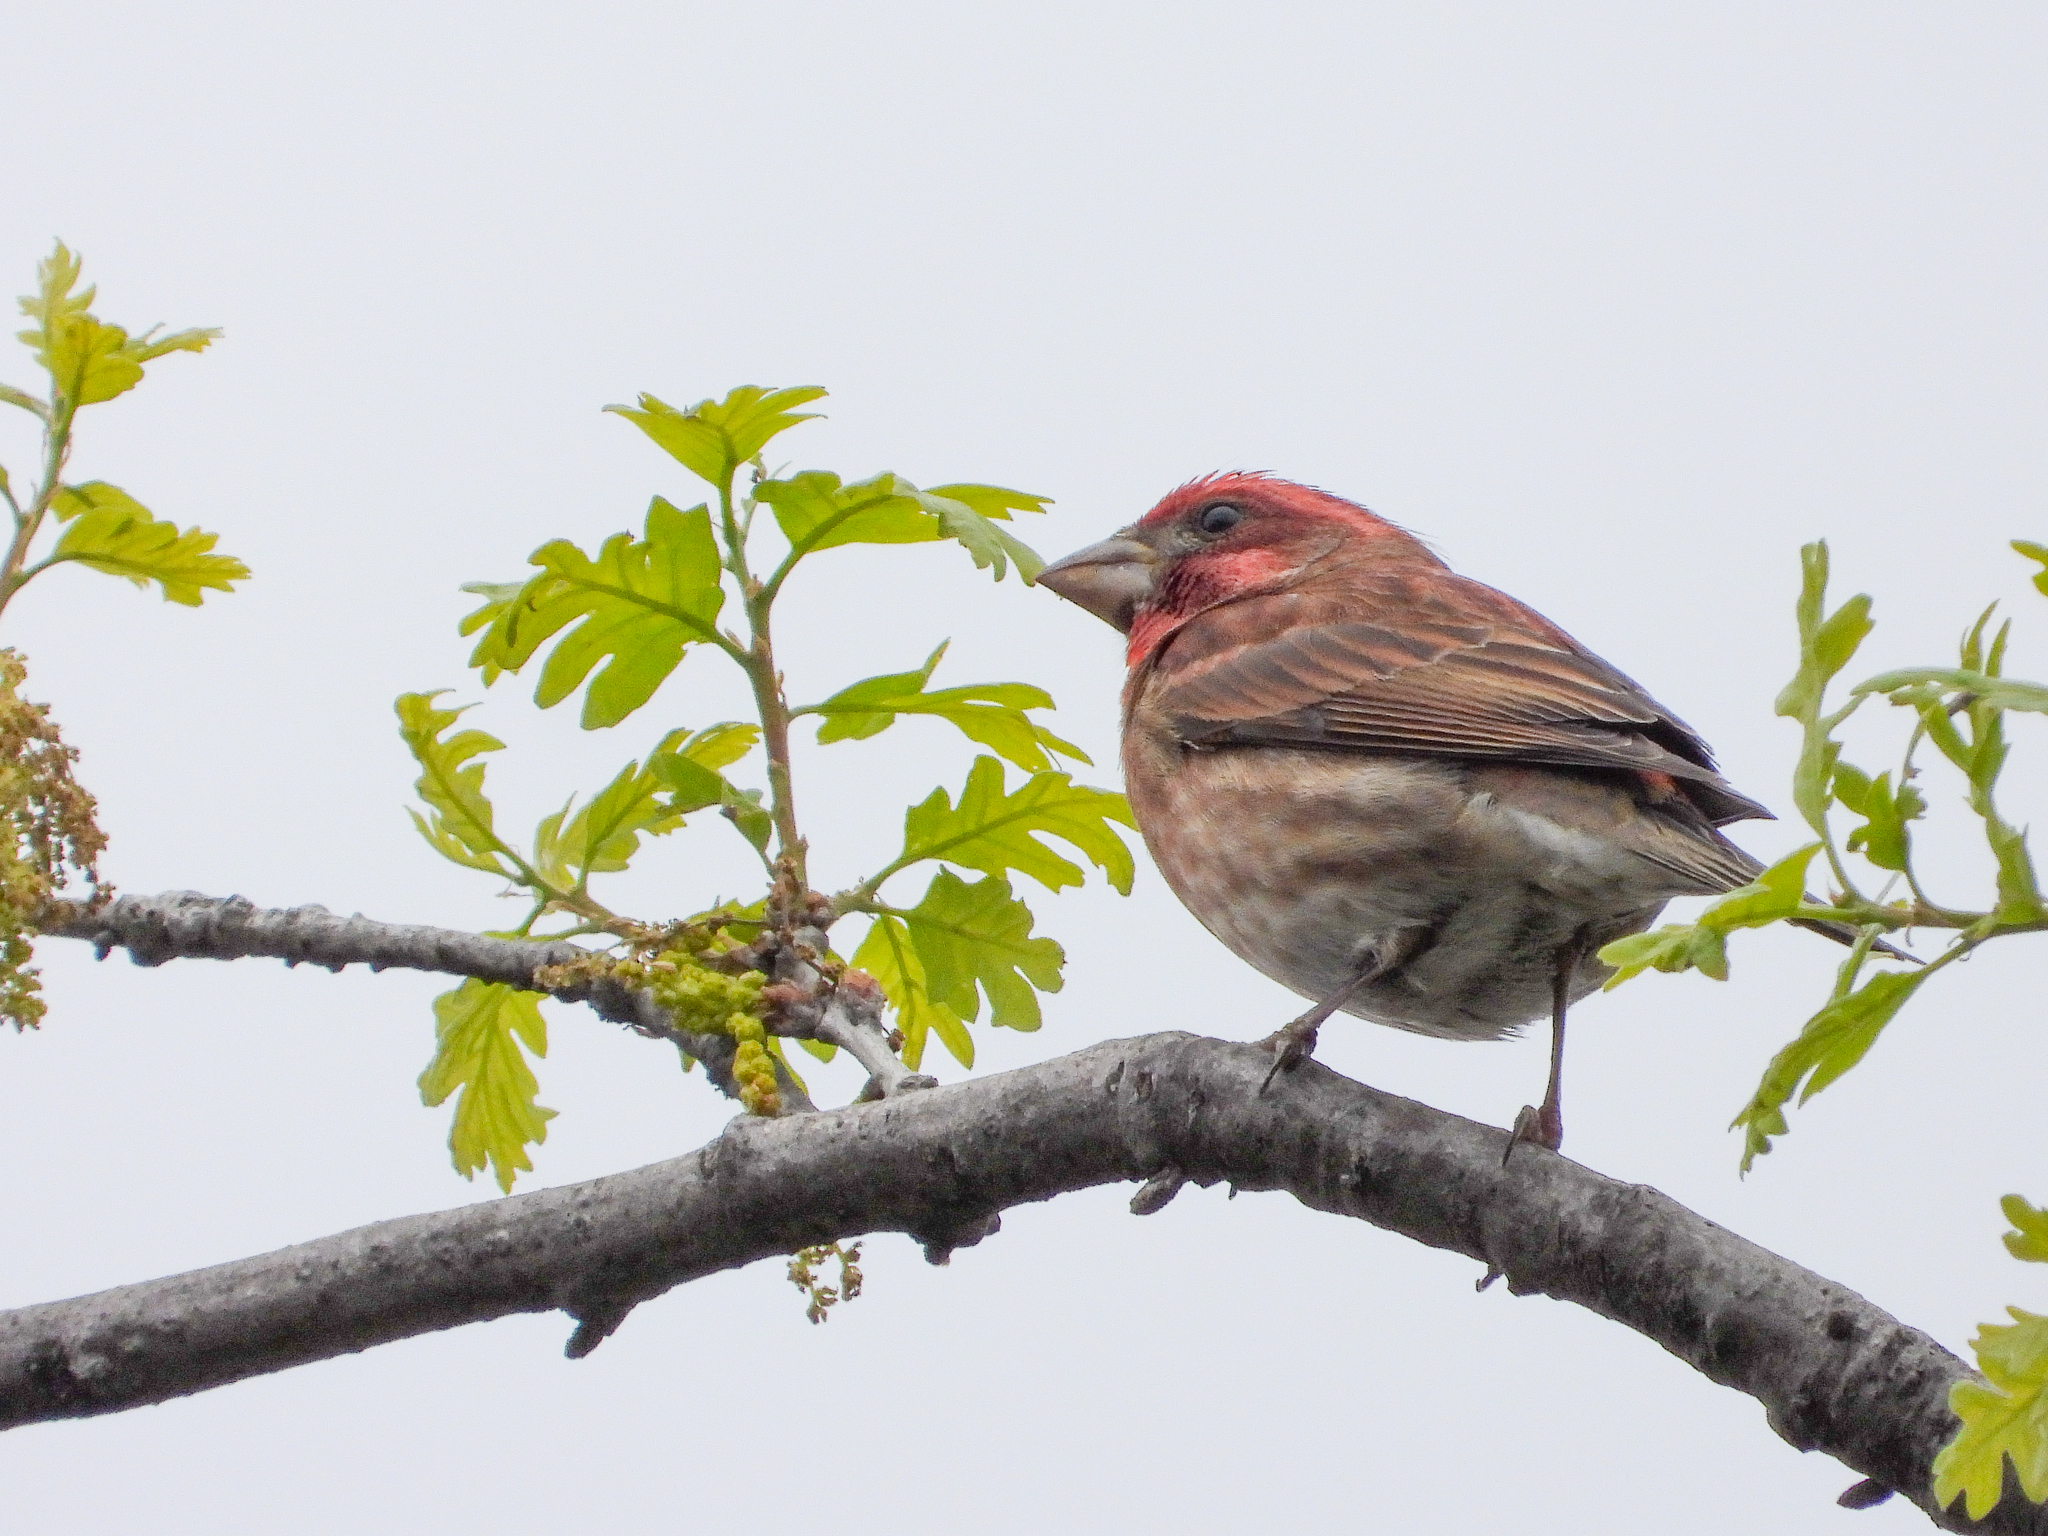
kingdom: Animalia
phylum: Chordata
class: Aves
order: Passeriformes
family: Fringillidae
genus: Haemorhous
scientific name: Haemorhous purpureus
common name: Purple finch
